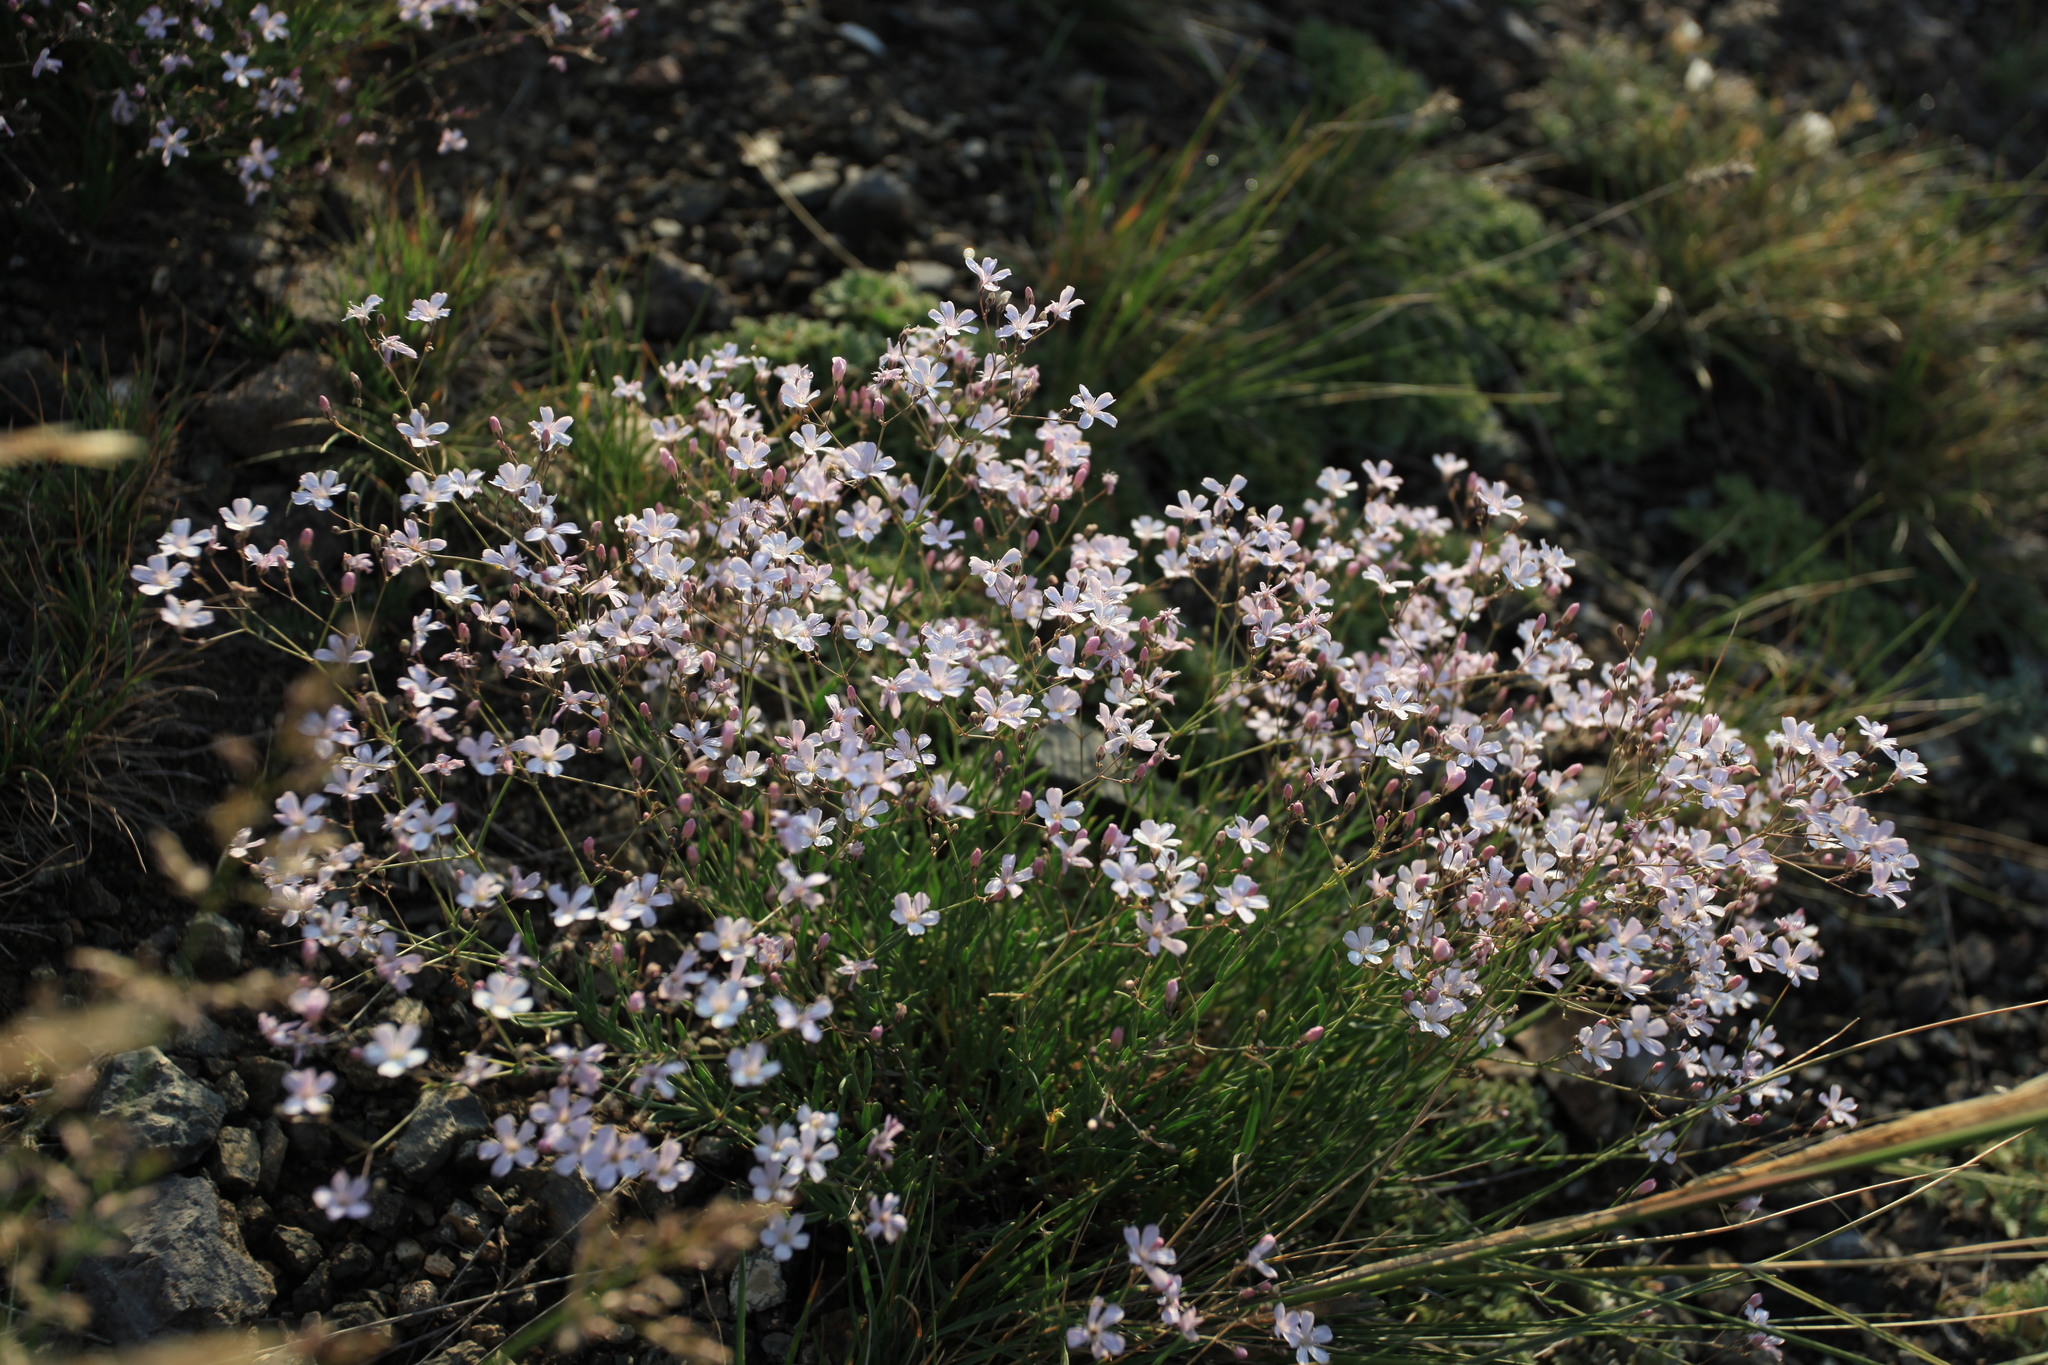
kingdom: Plantae
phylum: Tracheophyta
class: Magnoliopsida
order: Caryophyllales
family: Caryophyllaceae
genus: Gypsophila
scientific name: Gypsophila patrinii
